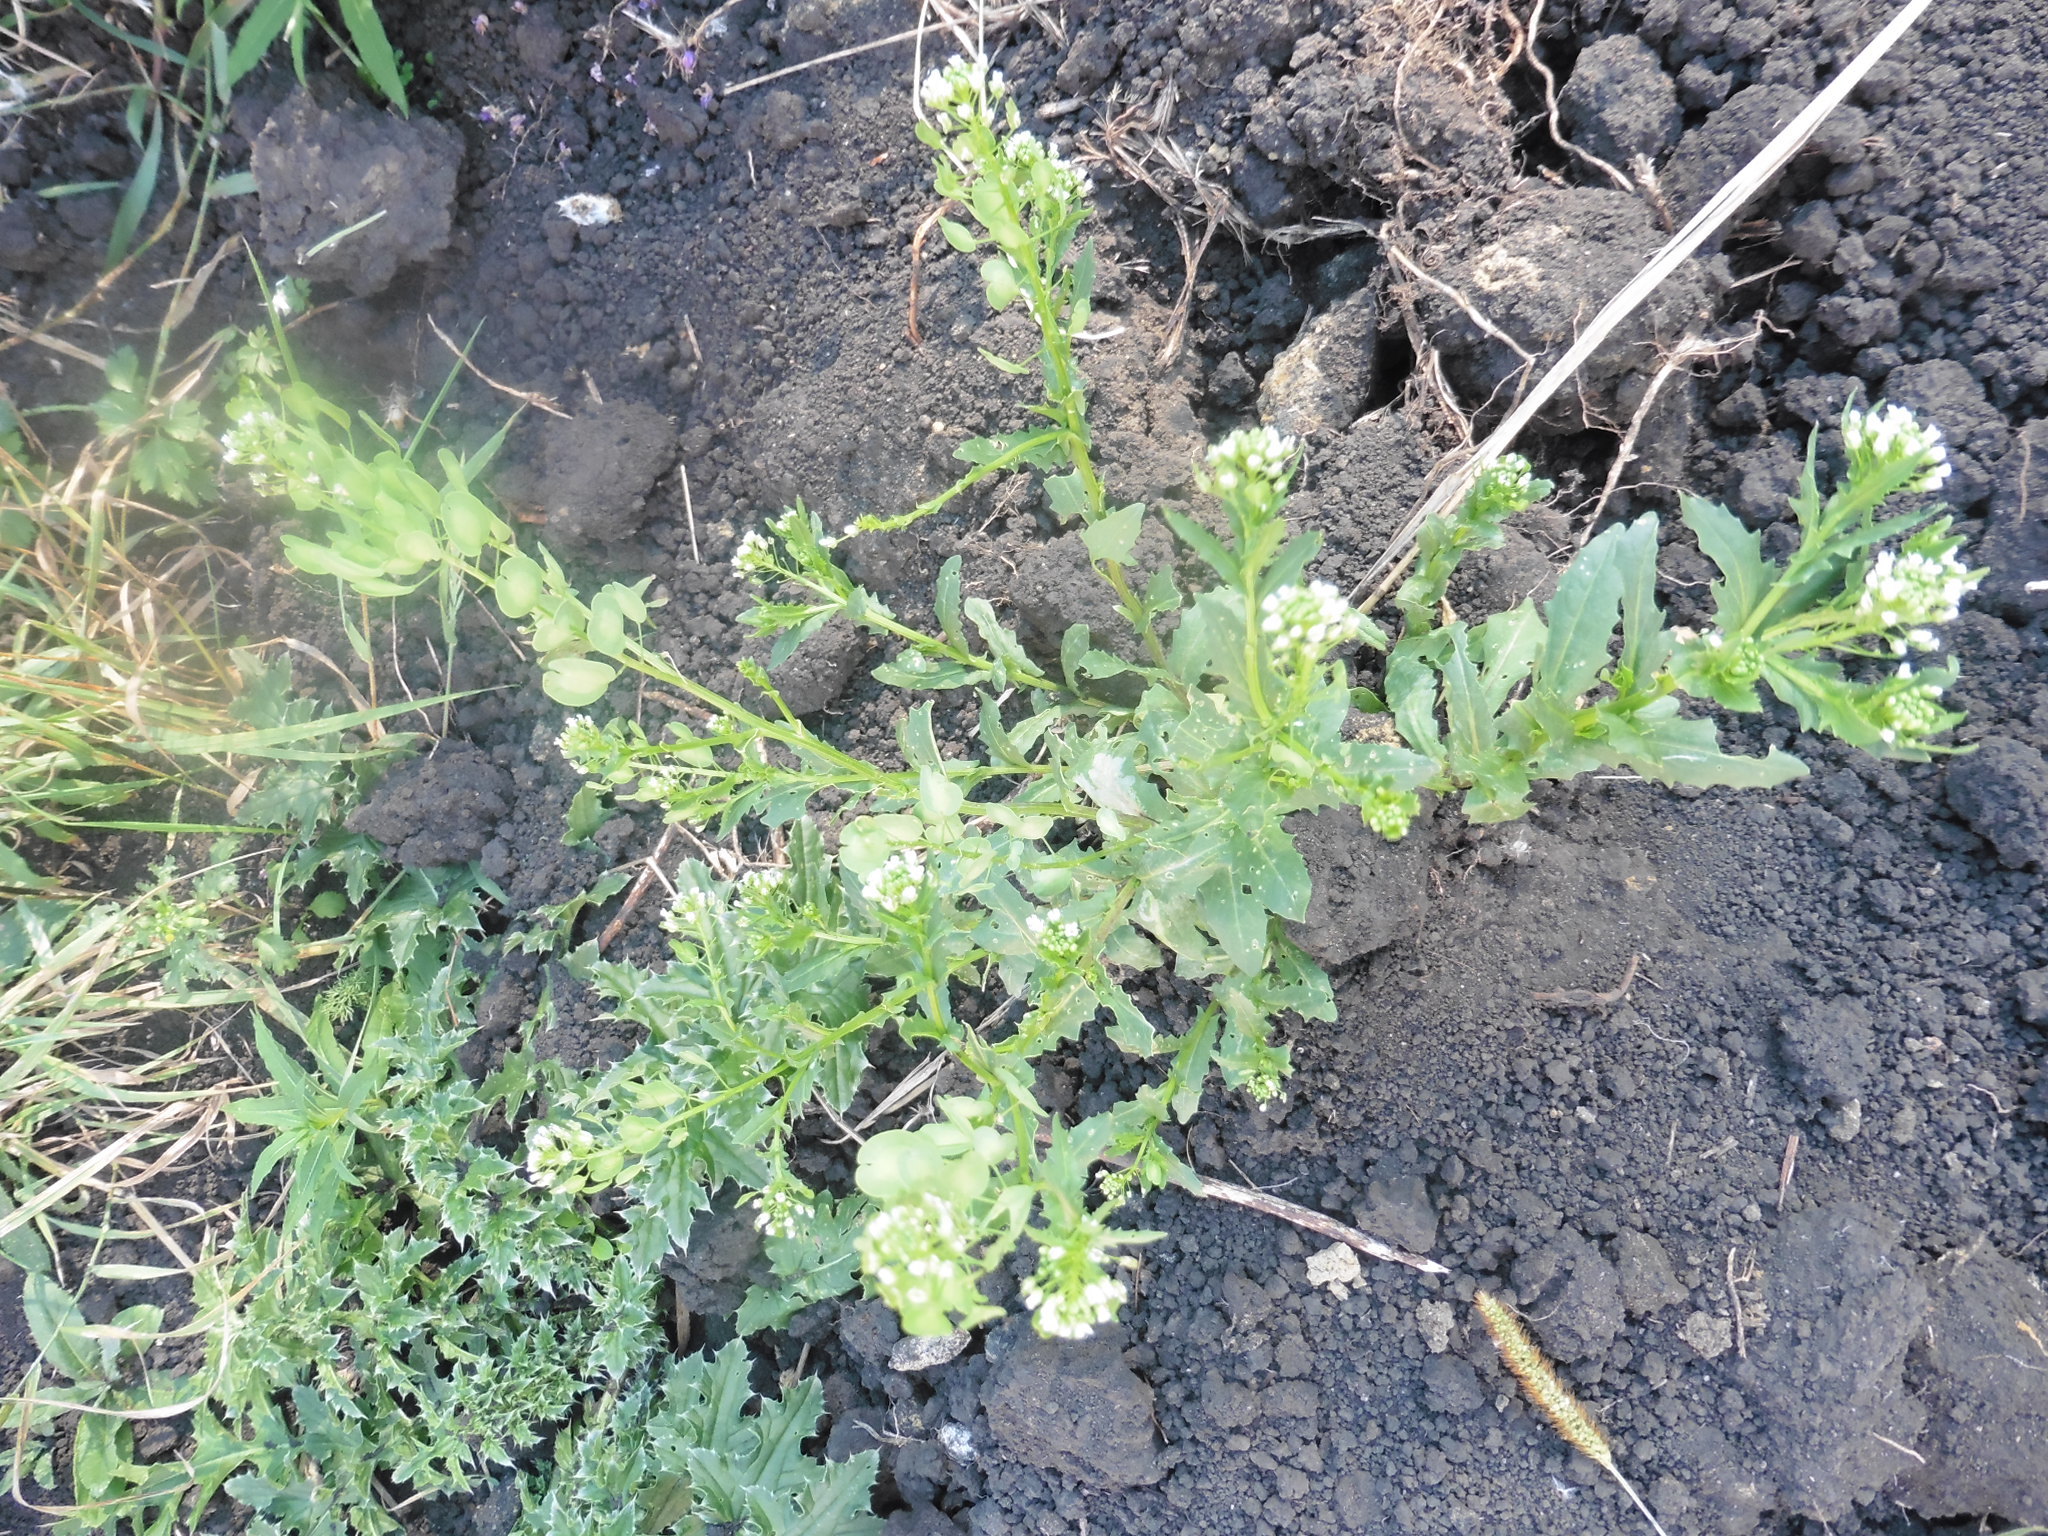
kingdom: Plantae
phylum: Tracheophyta
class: Magnoliopsida
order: Brassicales
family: Brassicaceae
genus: Thlaspi
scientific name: Thlaspi arvense
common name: Field pennycress
